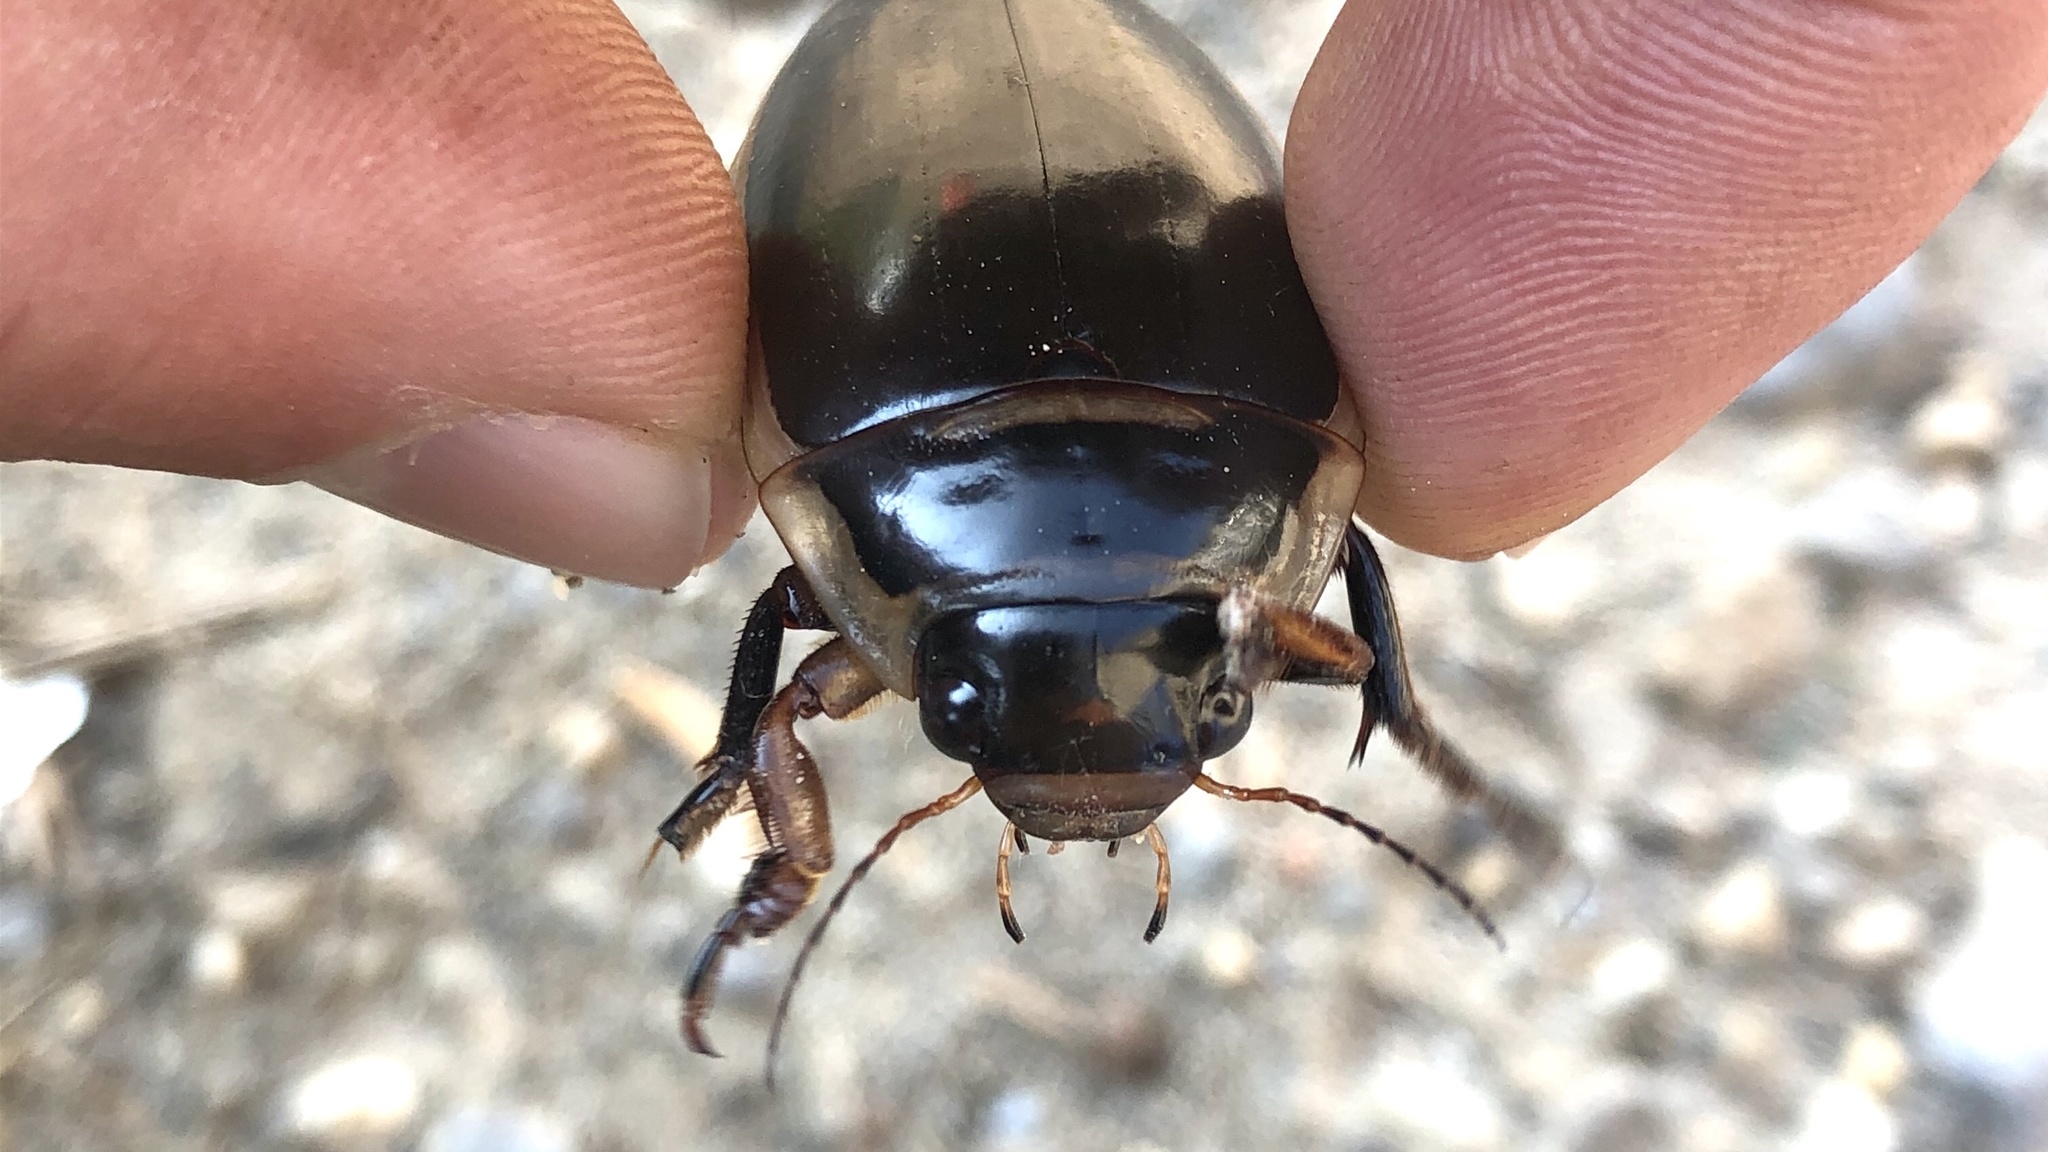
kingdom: Animalia
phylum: Arthropoda
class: Insecta
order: Coleoptera
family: Dytiscidae
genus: Dytiscus
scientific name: Dytiscus harrisii
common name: Harris's diving beetle
